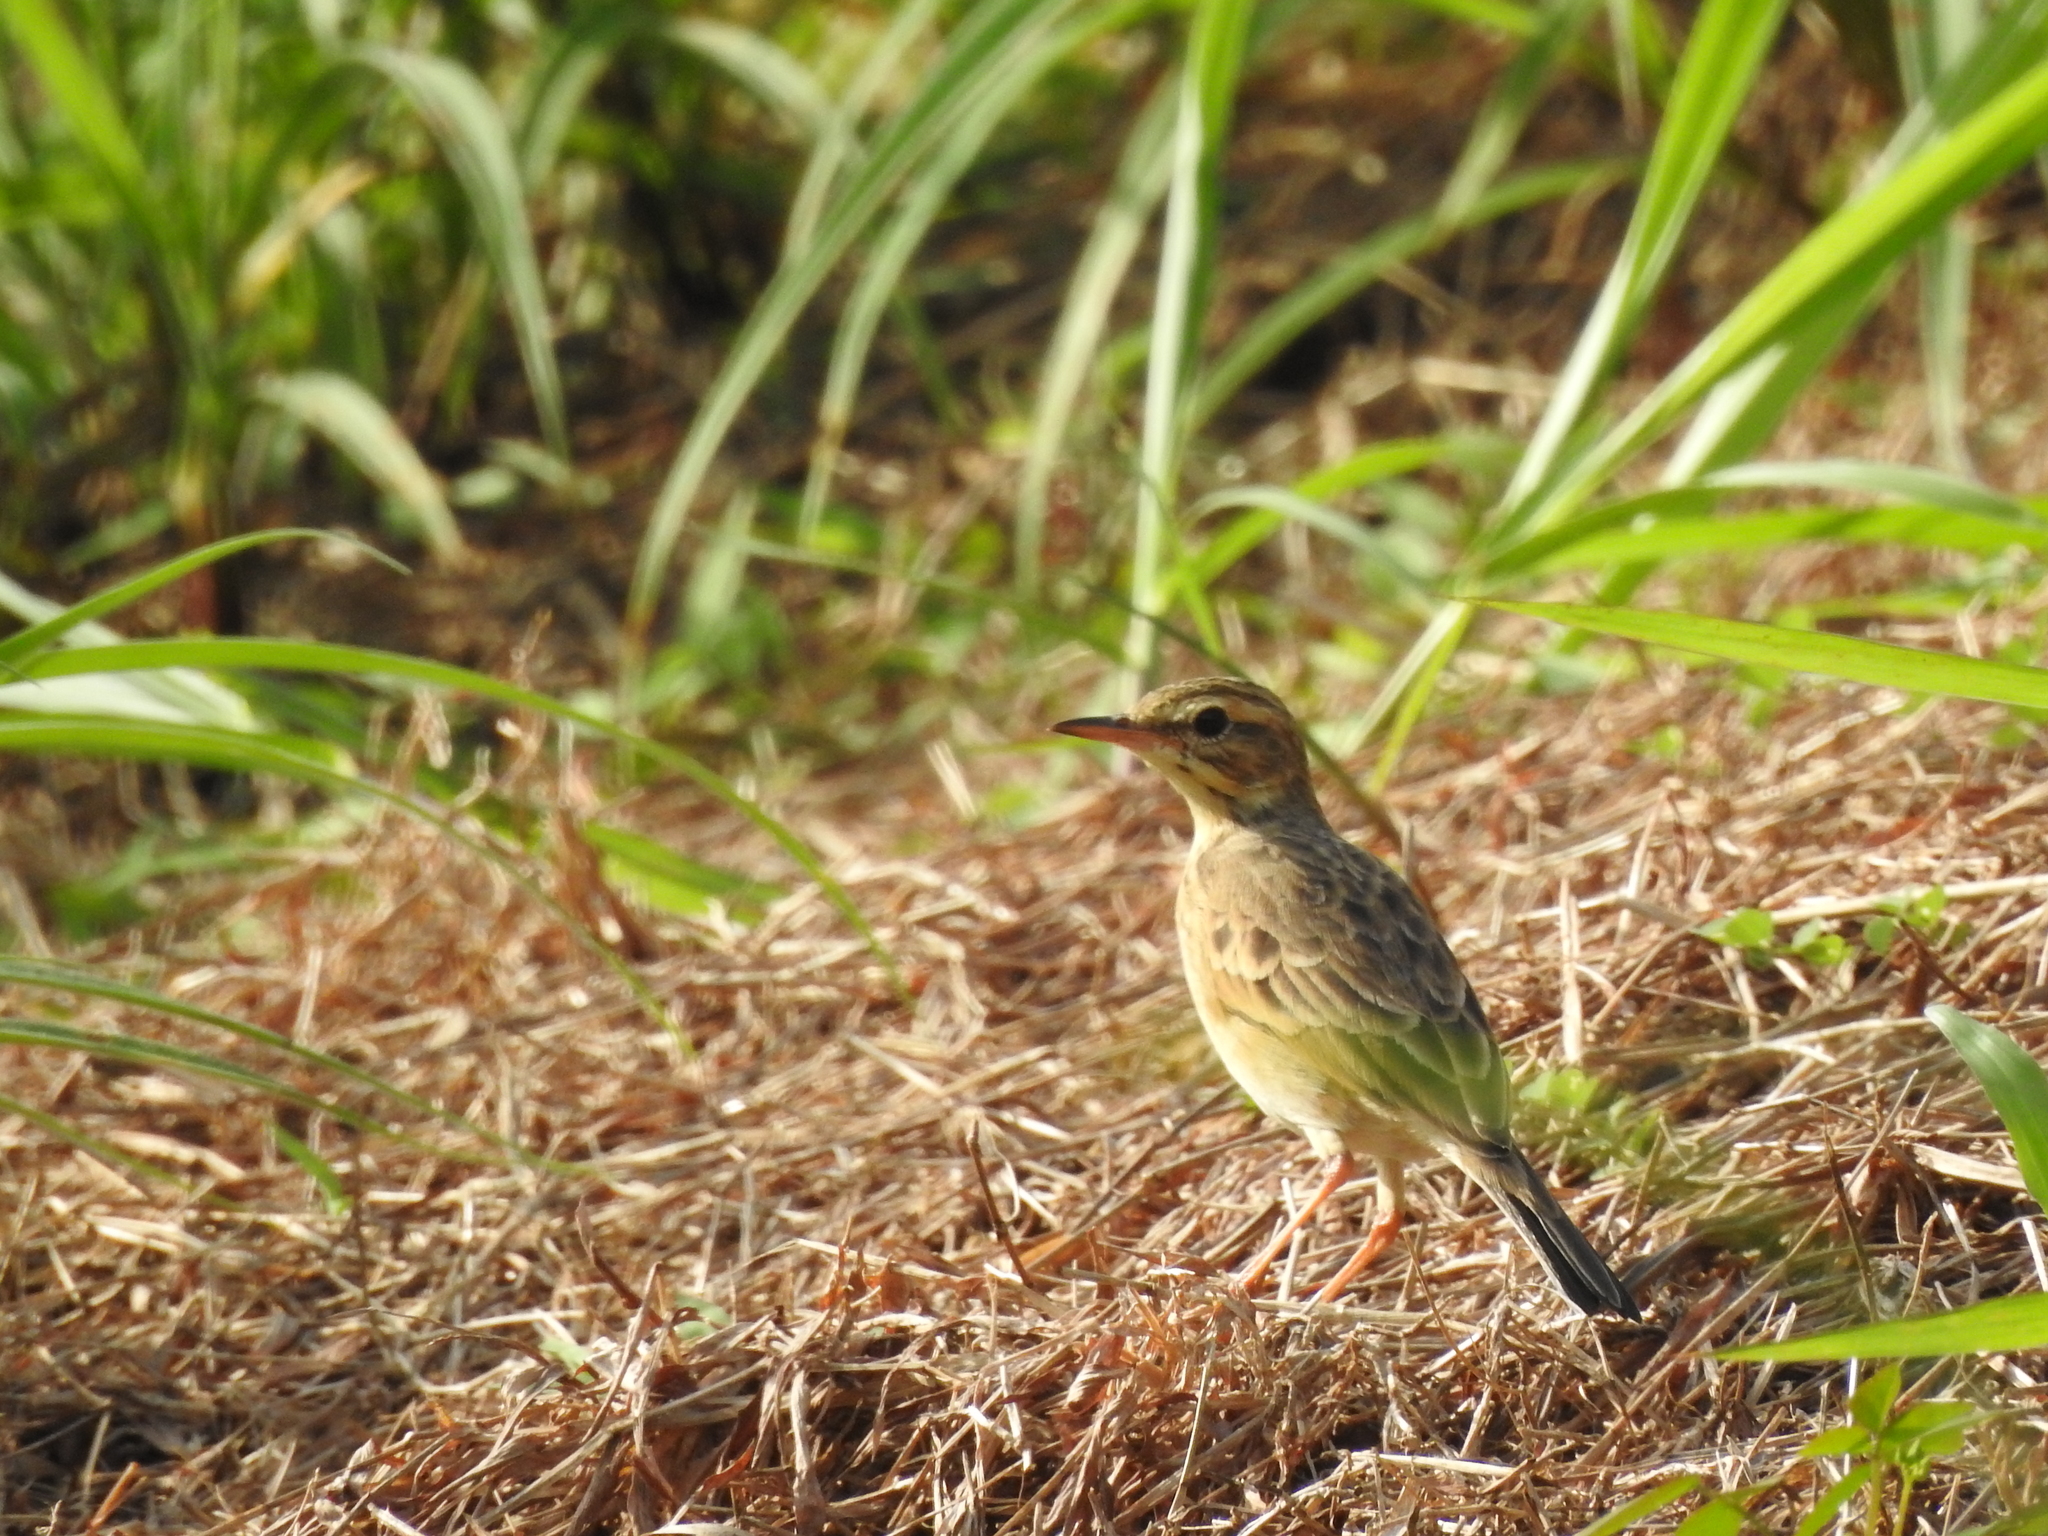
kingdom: Animalia
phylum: Chordata
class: Aves
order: Passeriformes
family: Motacillidae
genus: Anthus
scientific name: Anthus rufulus
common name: Paddyfield pipit
